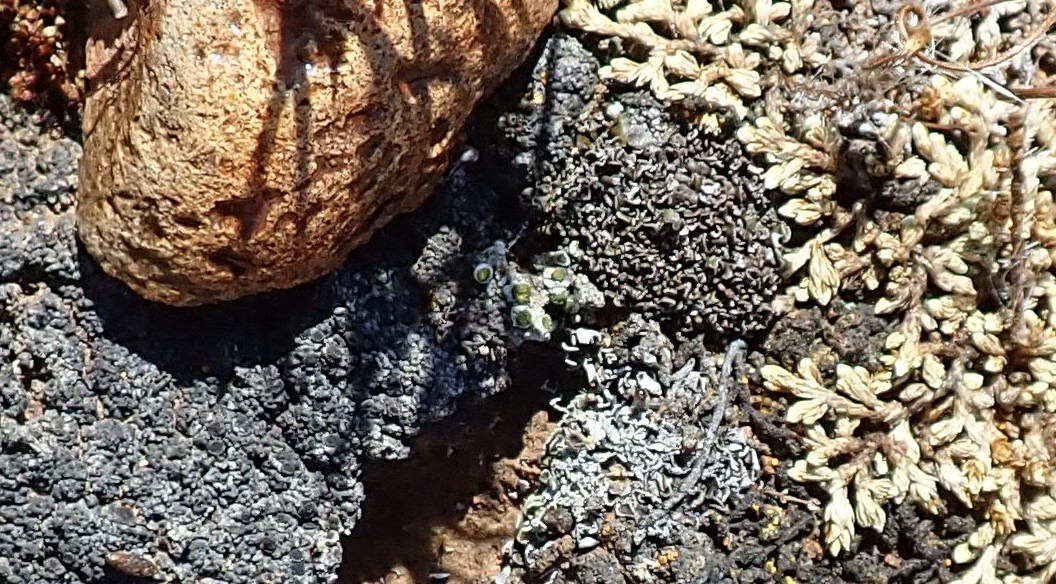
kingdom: Fungi
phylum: Ascomycota
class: Lecanoromycetes
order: Caliciales
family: Caliciaceae
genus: Texosporium
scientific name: Texosporium sancti-jacobi
